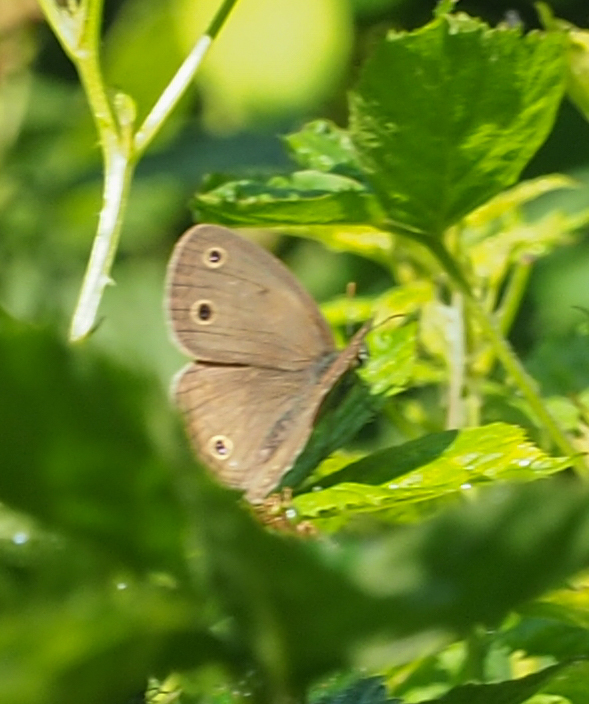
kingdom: Animalia
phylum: Arthropoda
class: Insecta
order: Lepidoptera
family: Nymphalidae
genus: Euptychia
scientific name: Euptychia cymela
